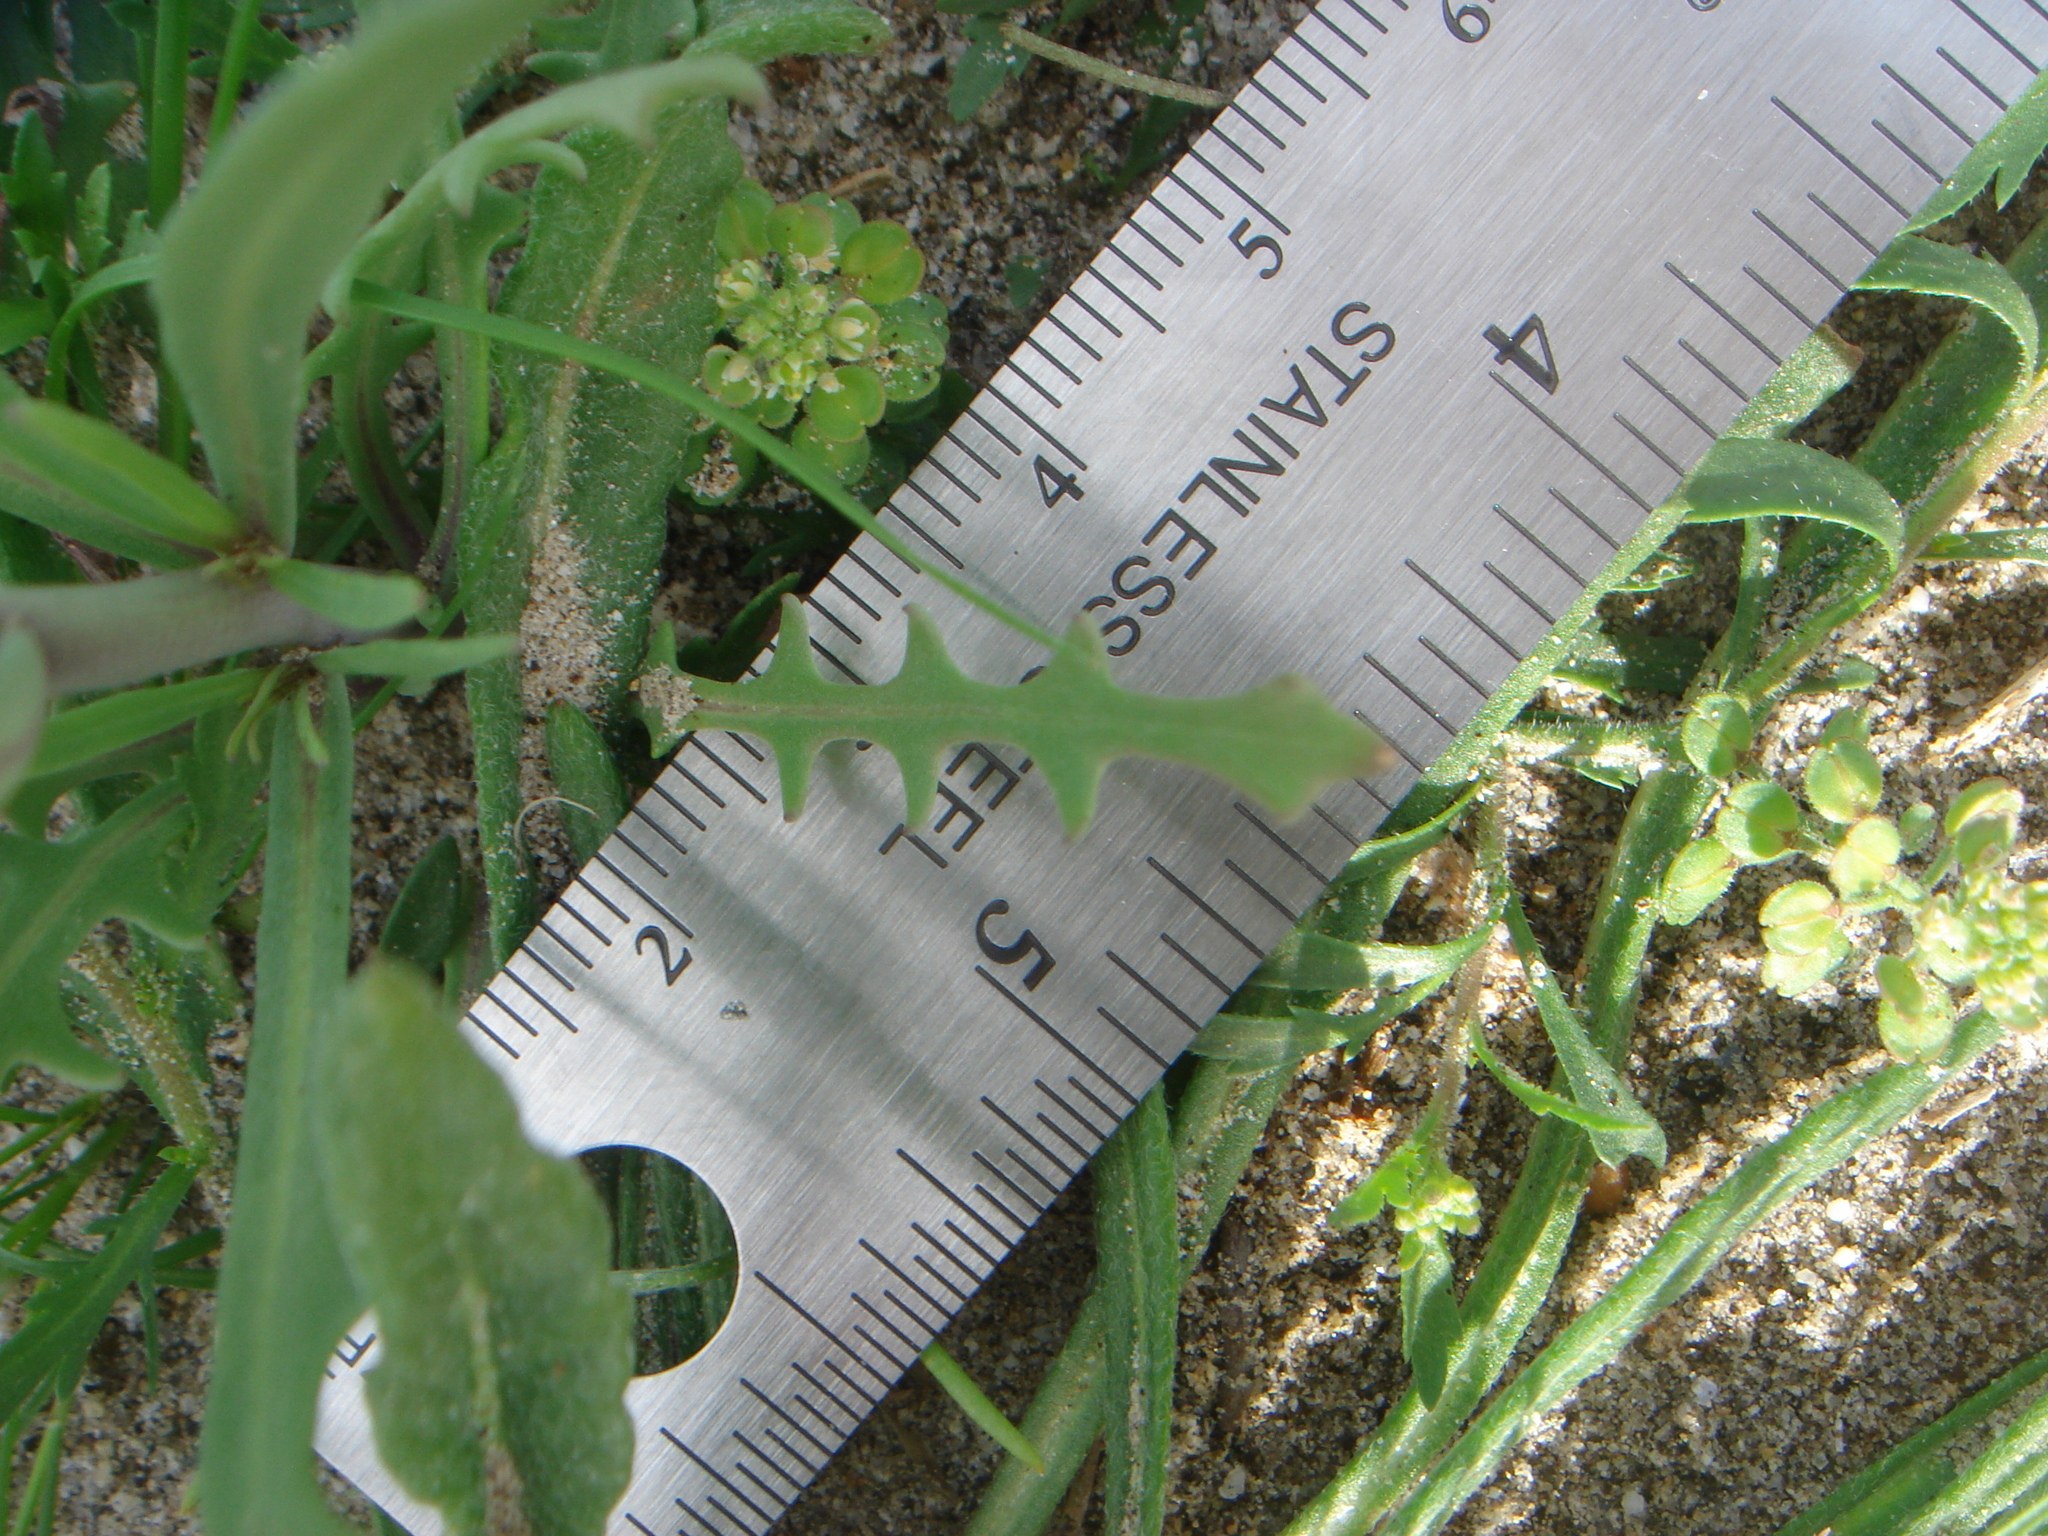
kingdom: Plantae
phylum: Tracheophyta
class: Magnoliopsida
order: Brassicales
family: Brassicaceae
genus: Streptanthus
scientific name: Streptanthus longirostris
